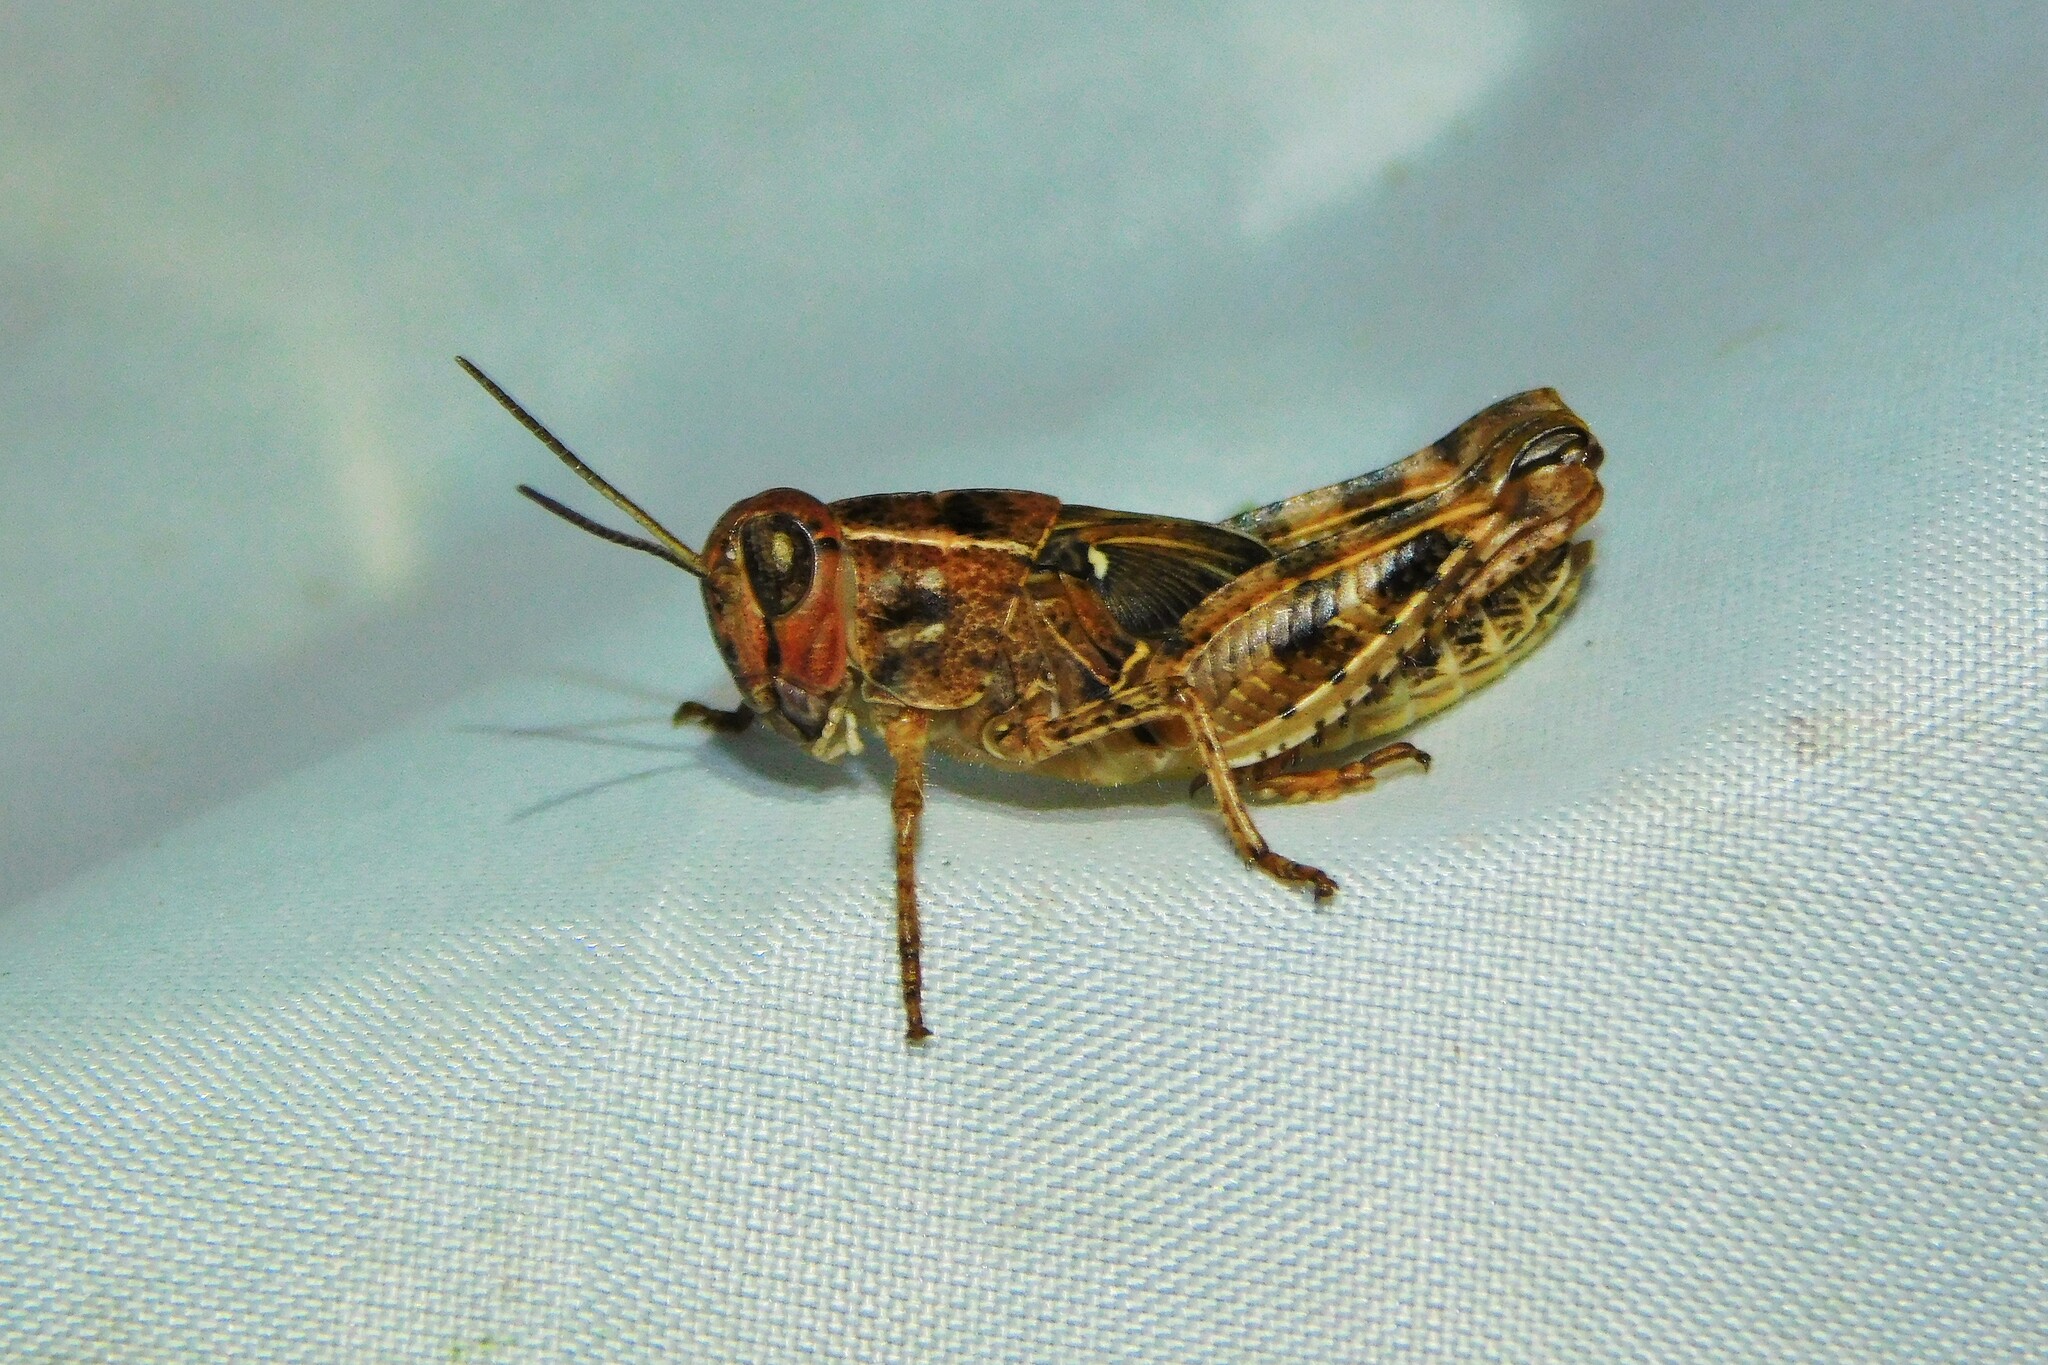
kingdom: Animalia
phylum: Arthropoda
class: Insecta
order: Orthoptera
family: Acrididae
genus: Calliptamus
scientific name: Calliptamus italicus
